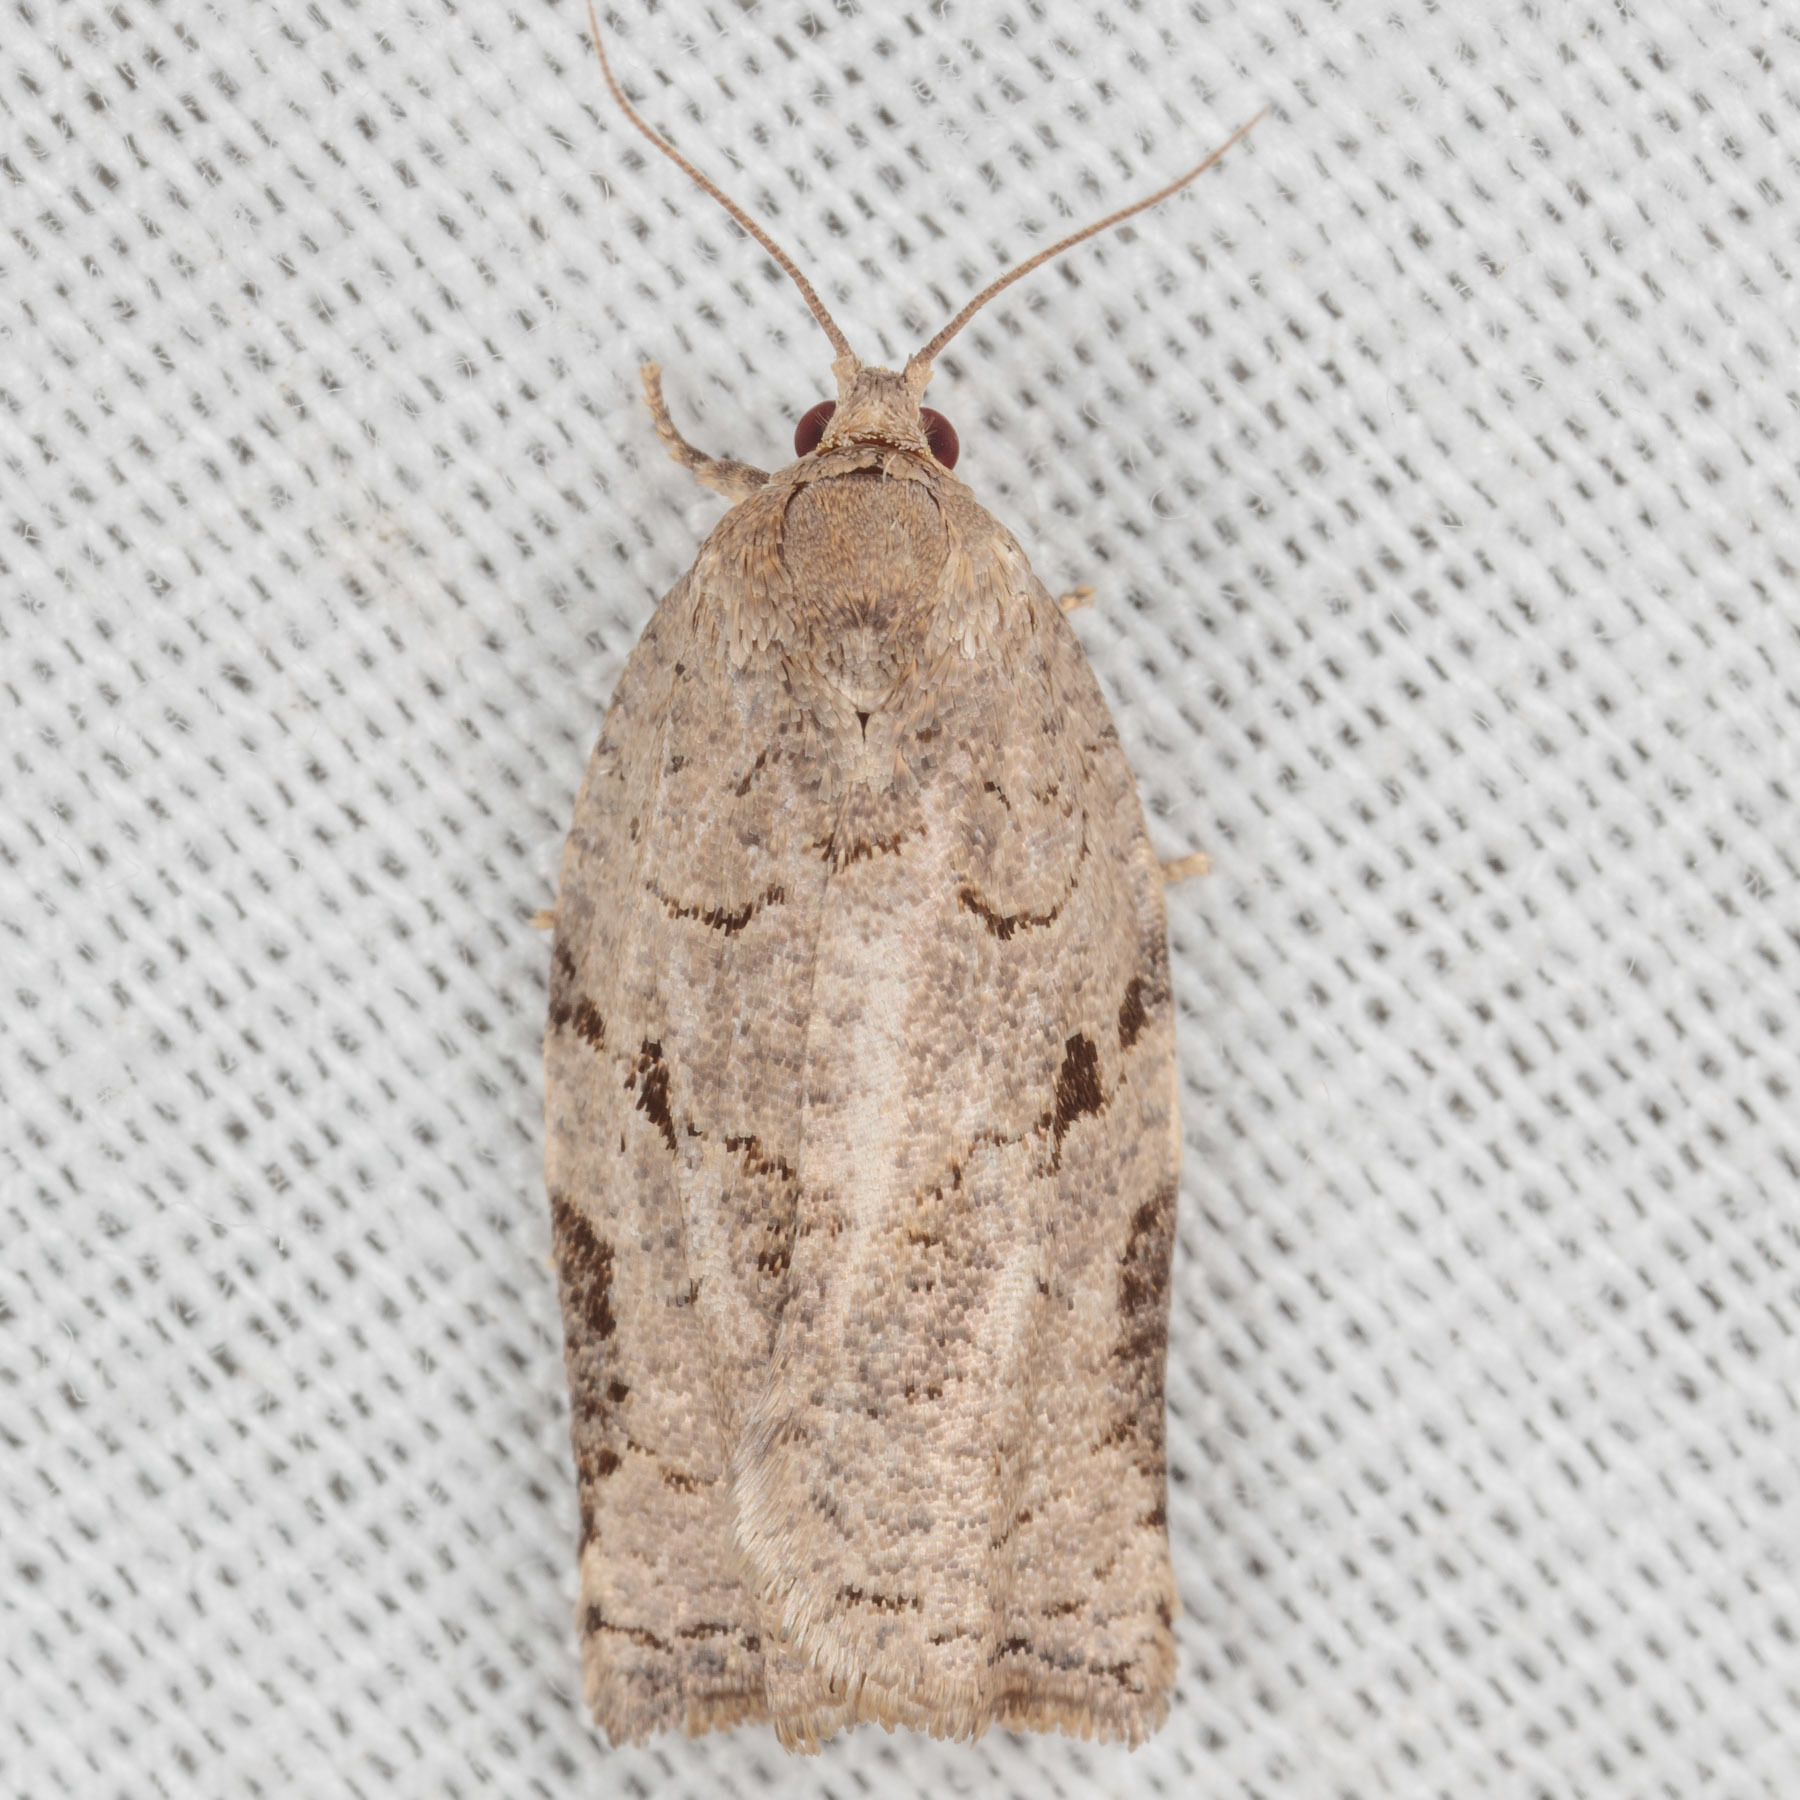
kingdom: Animalia
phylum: Arthropoda
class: Insecta
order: Lepidoptera
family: Tortricidae
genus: Archips
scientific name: Archips grisea
